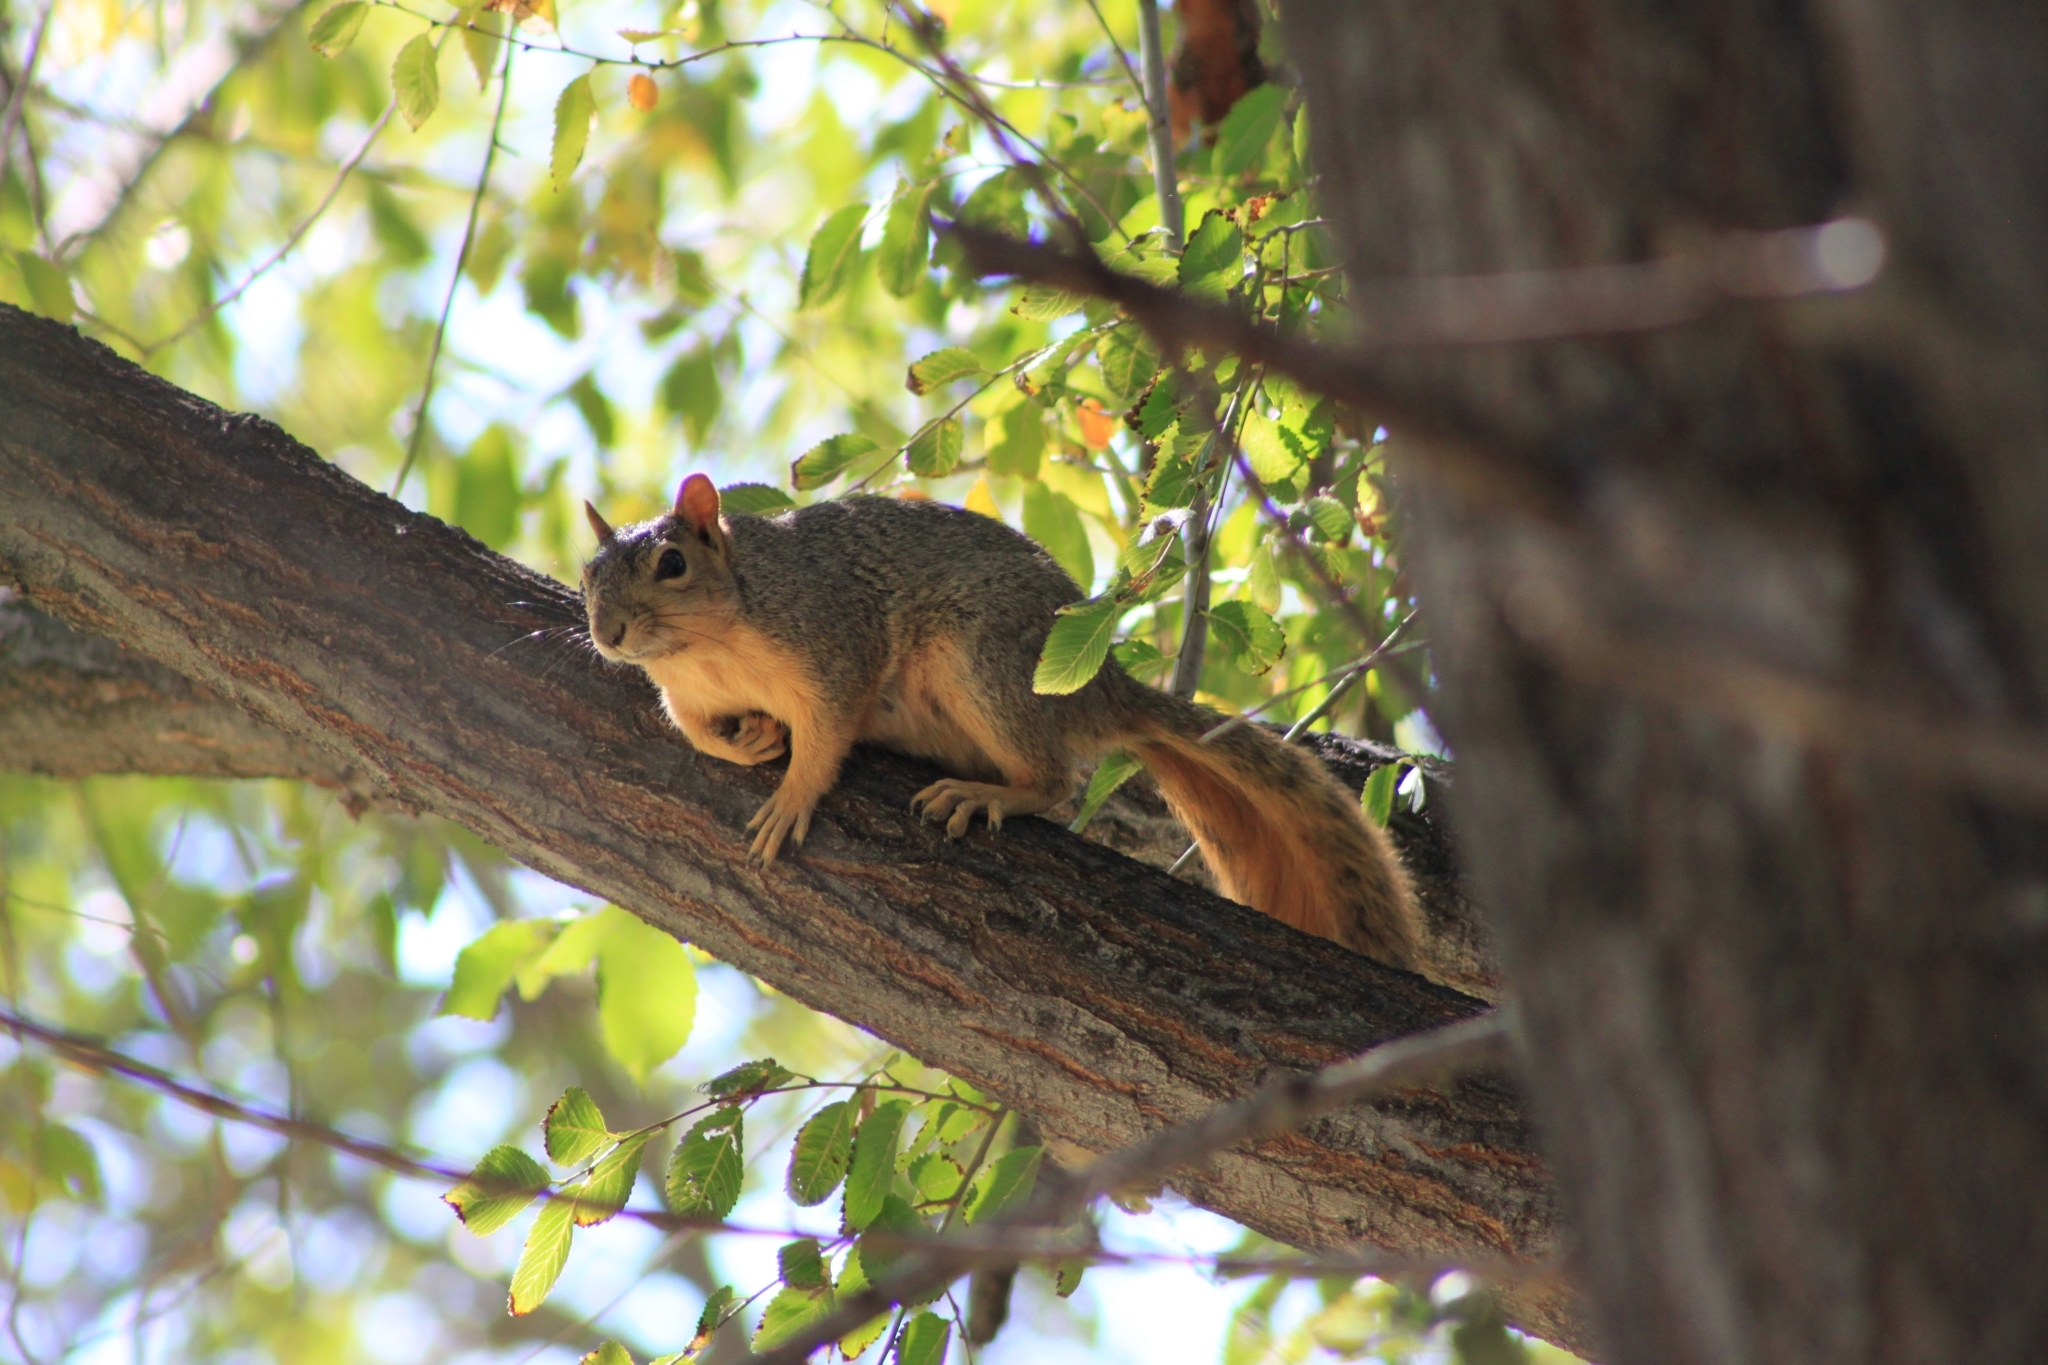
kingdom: Animalia
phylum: Chordata
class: Mammalia
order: Rodentia
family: Sciuridae
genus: Sciurus
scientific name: Sciurus niger
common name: Fox squirrel
